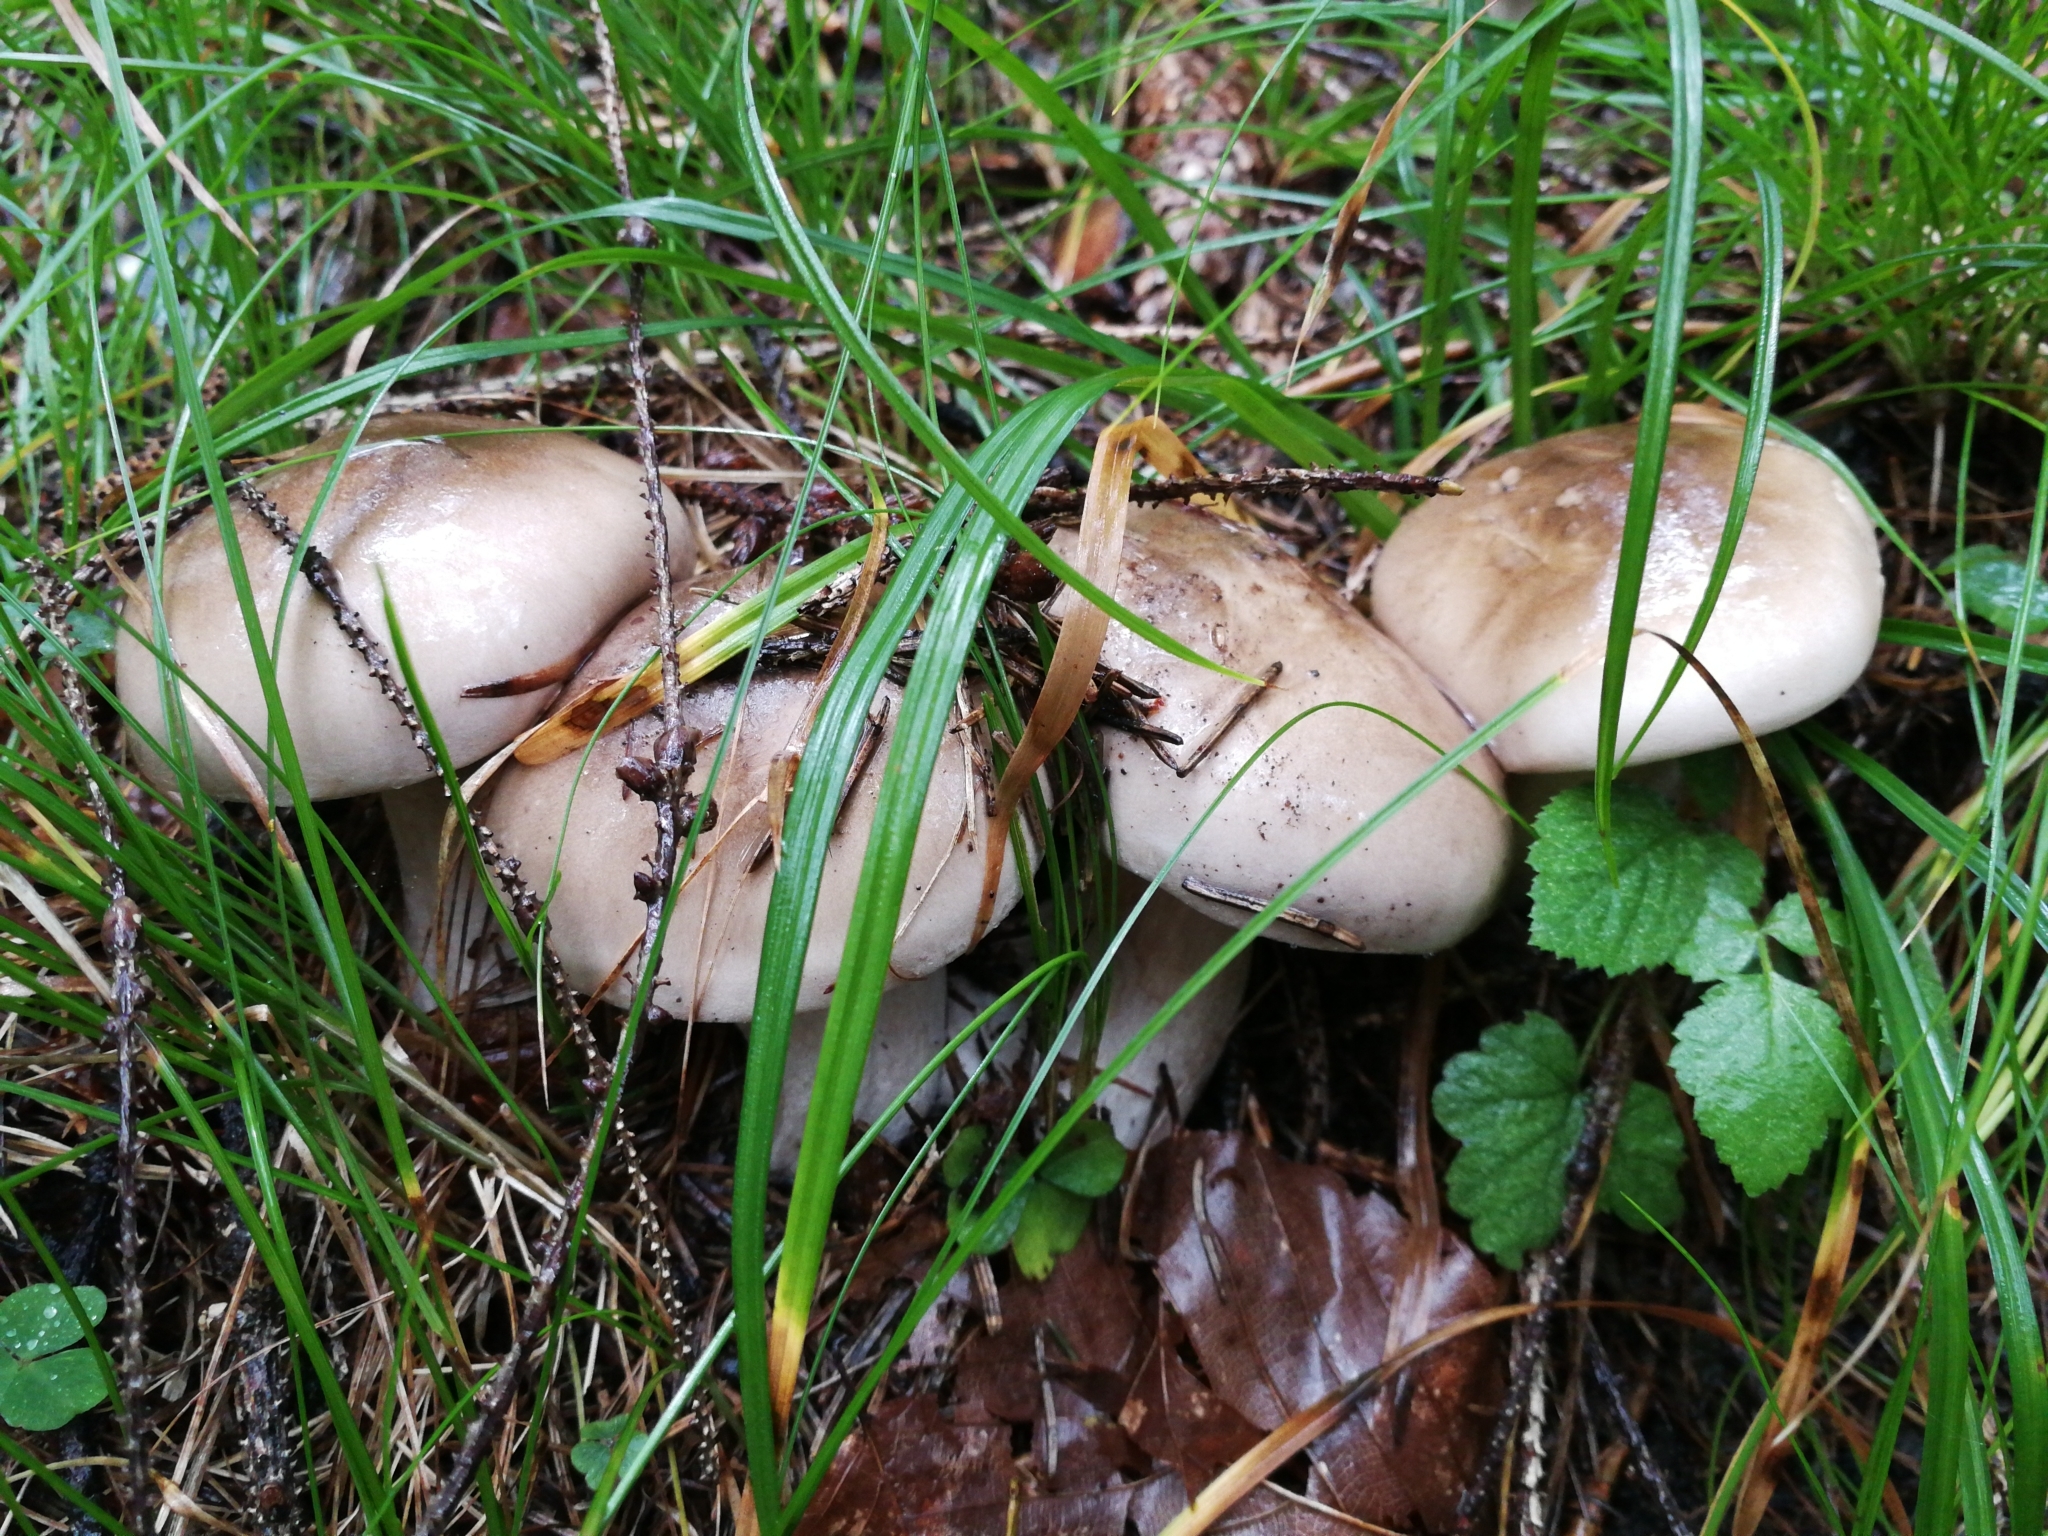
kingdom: Fungi
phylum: Basidiomycota
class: Agaricomycetes
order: Agaricales
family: Tricholomataceae
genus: Clitocybe
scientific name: Clitocybe nebularis
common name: Clouded agaric
